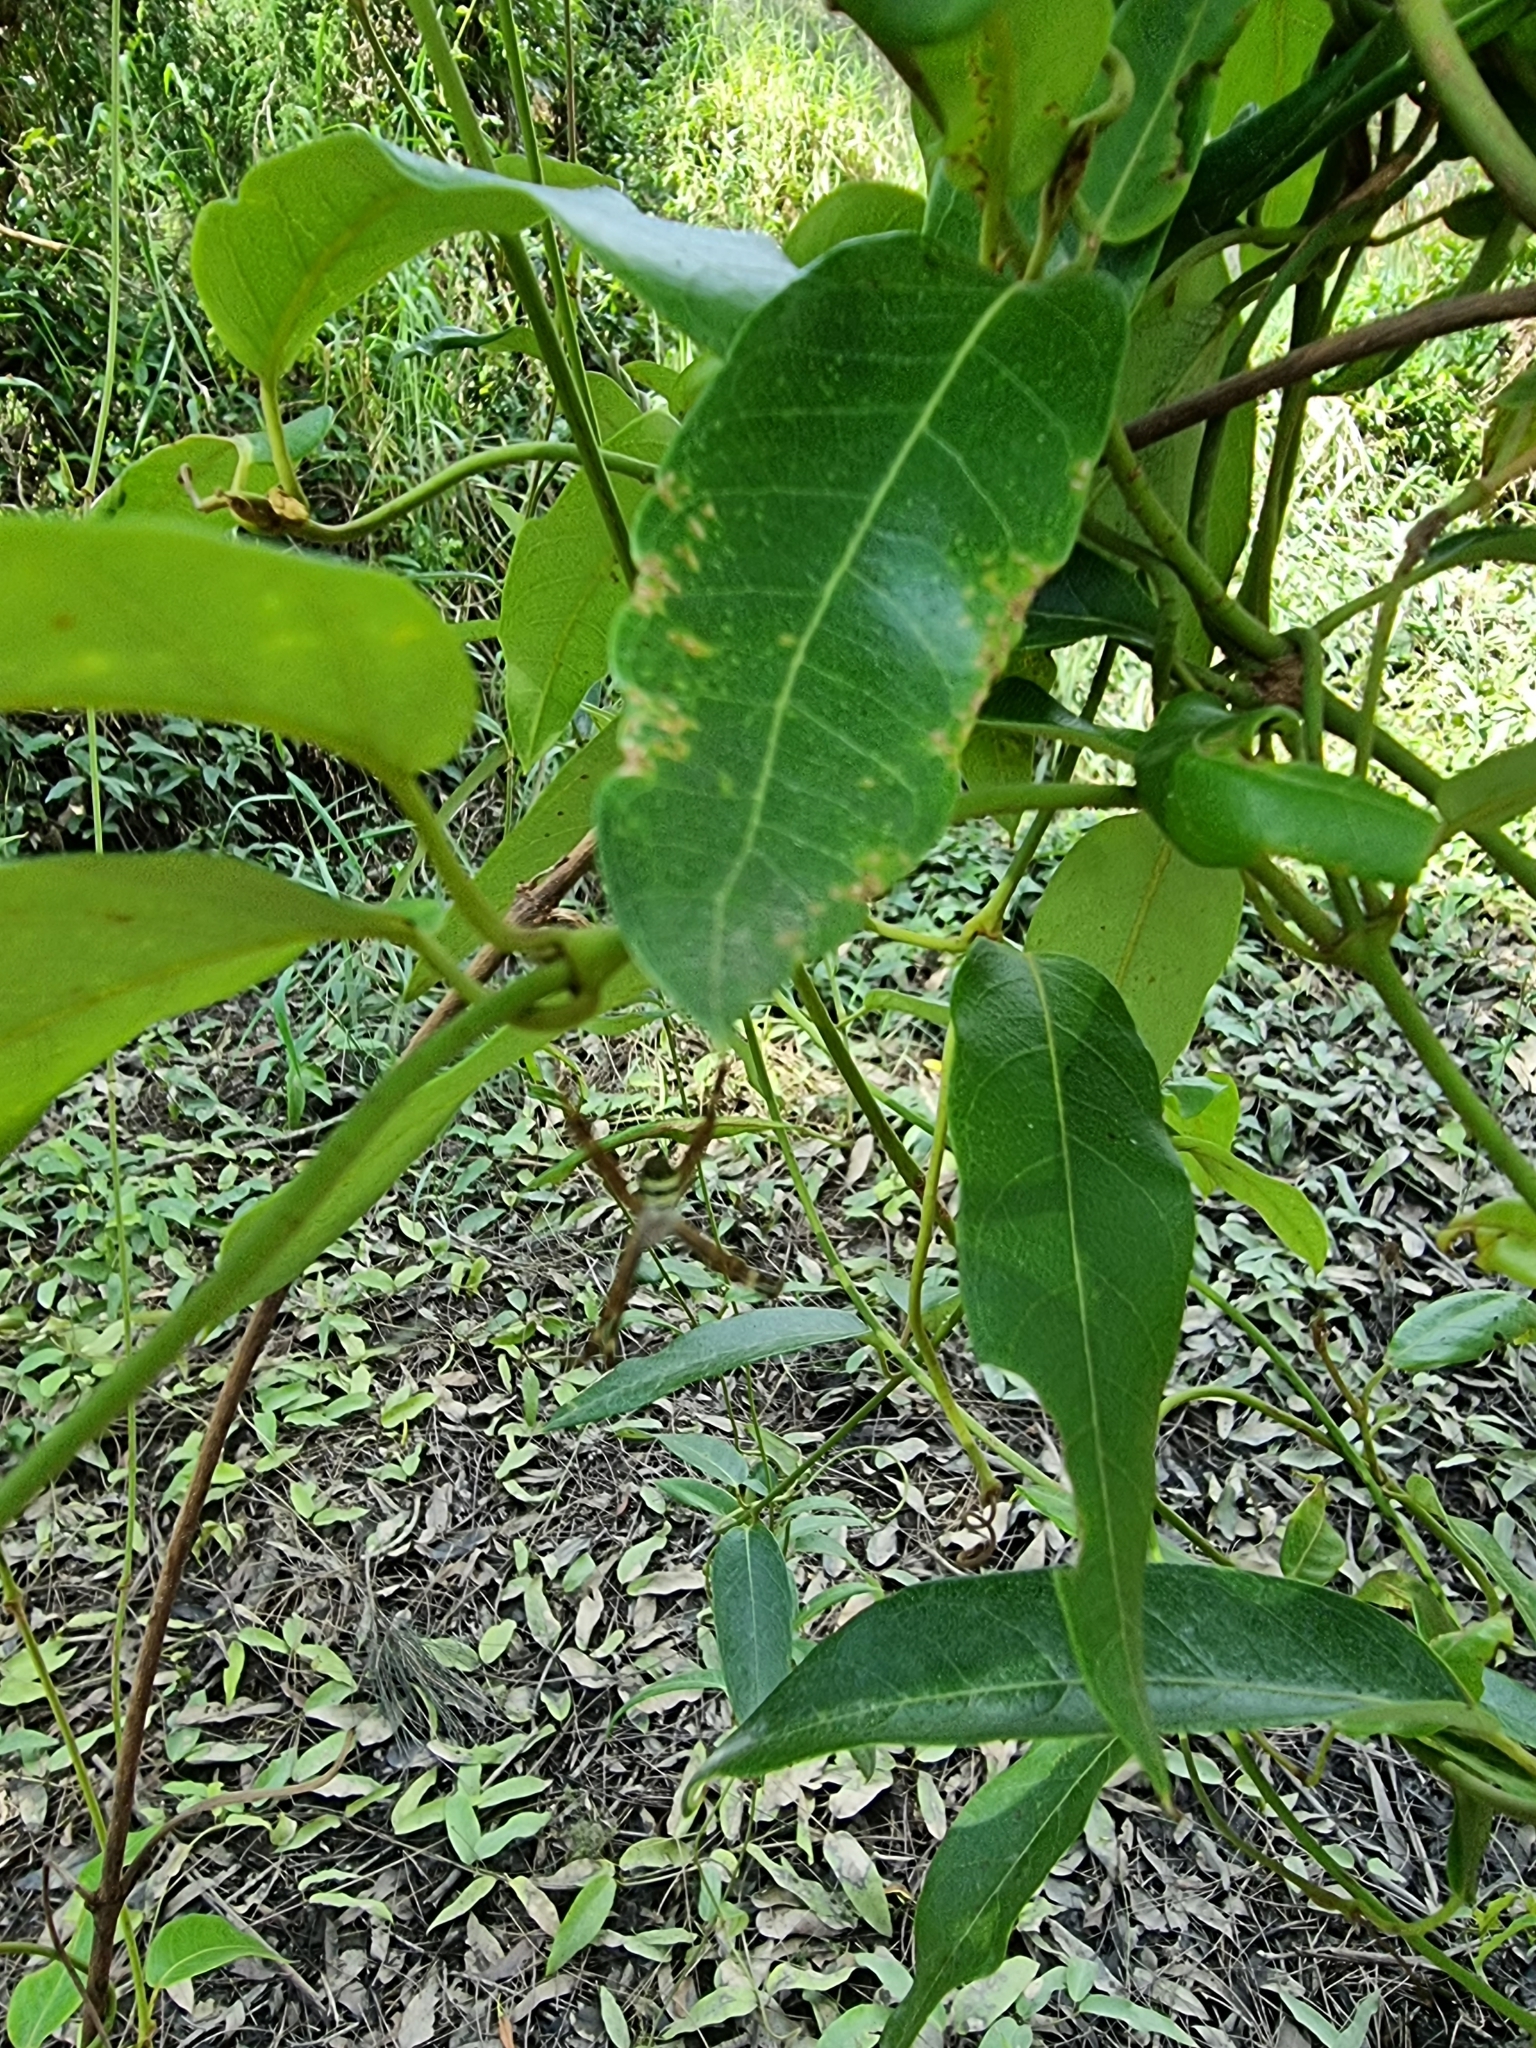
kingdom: Animalia
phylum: Arthropoda
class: Arachnida
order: Araneae
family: Araneidae
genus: Argiope
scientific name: Argiope keyserlingi
